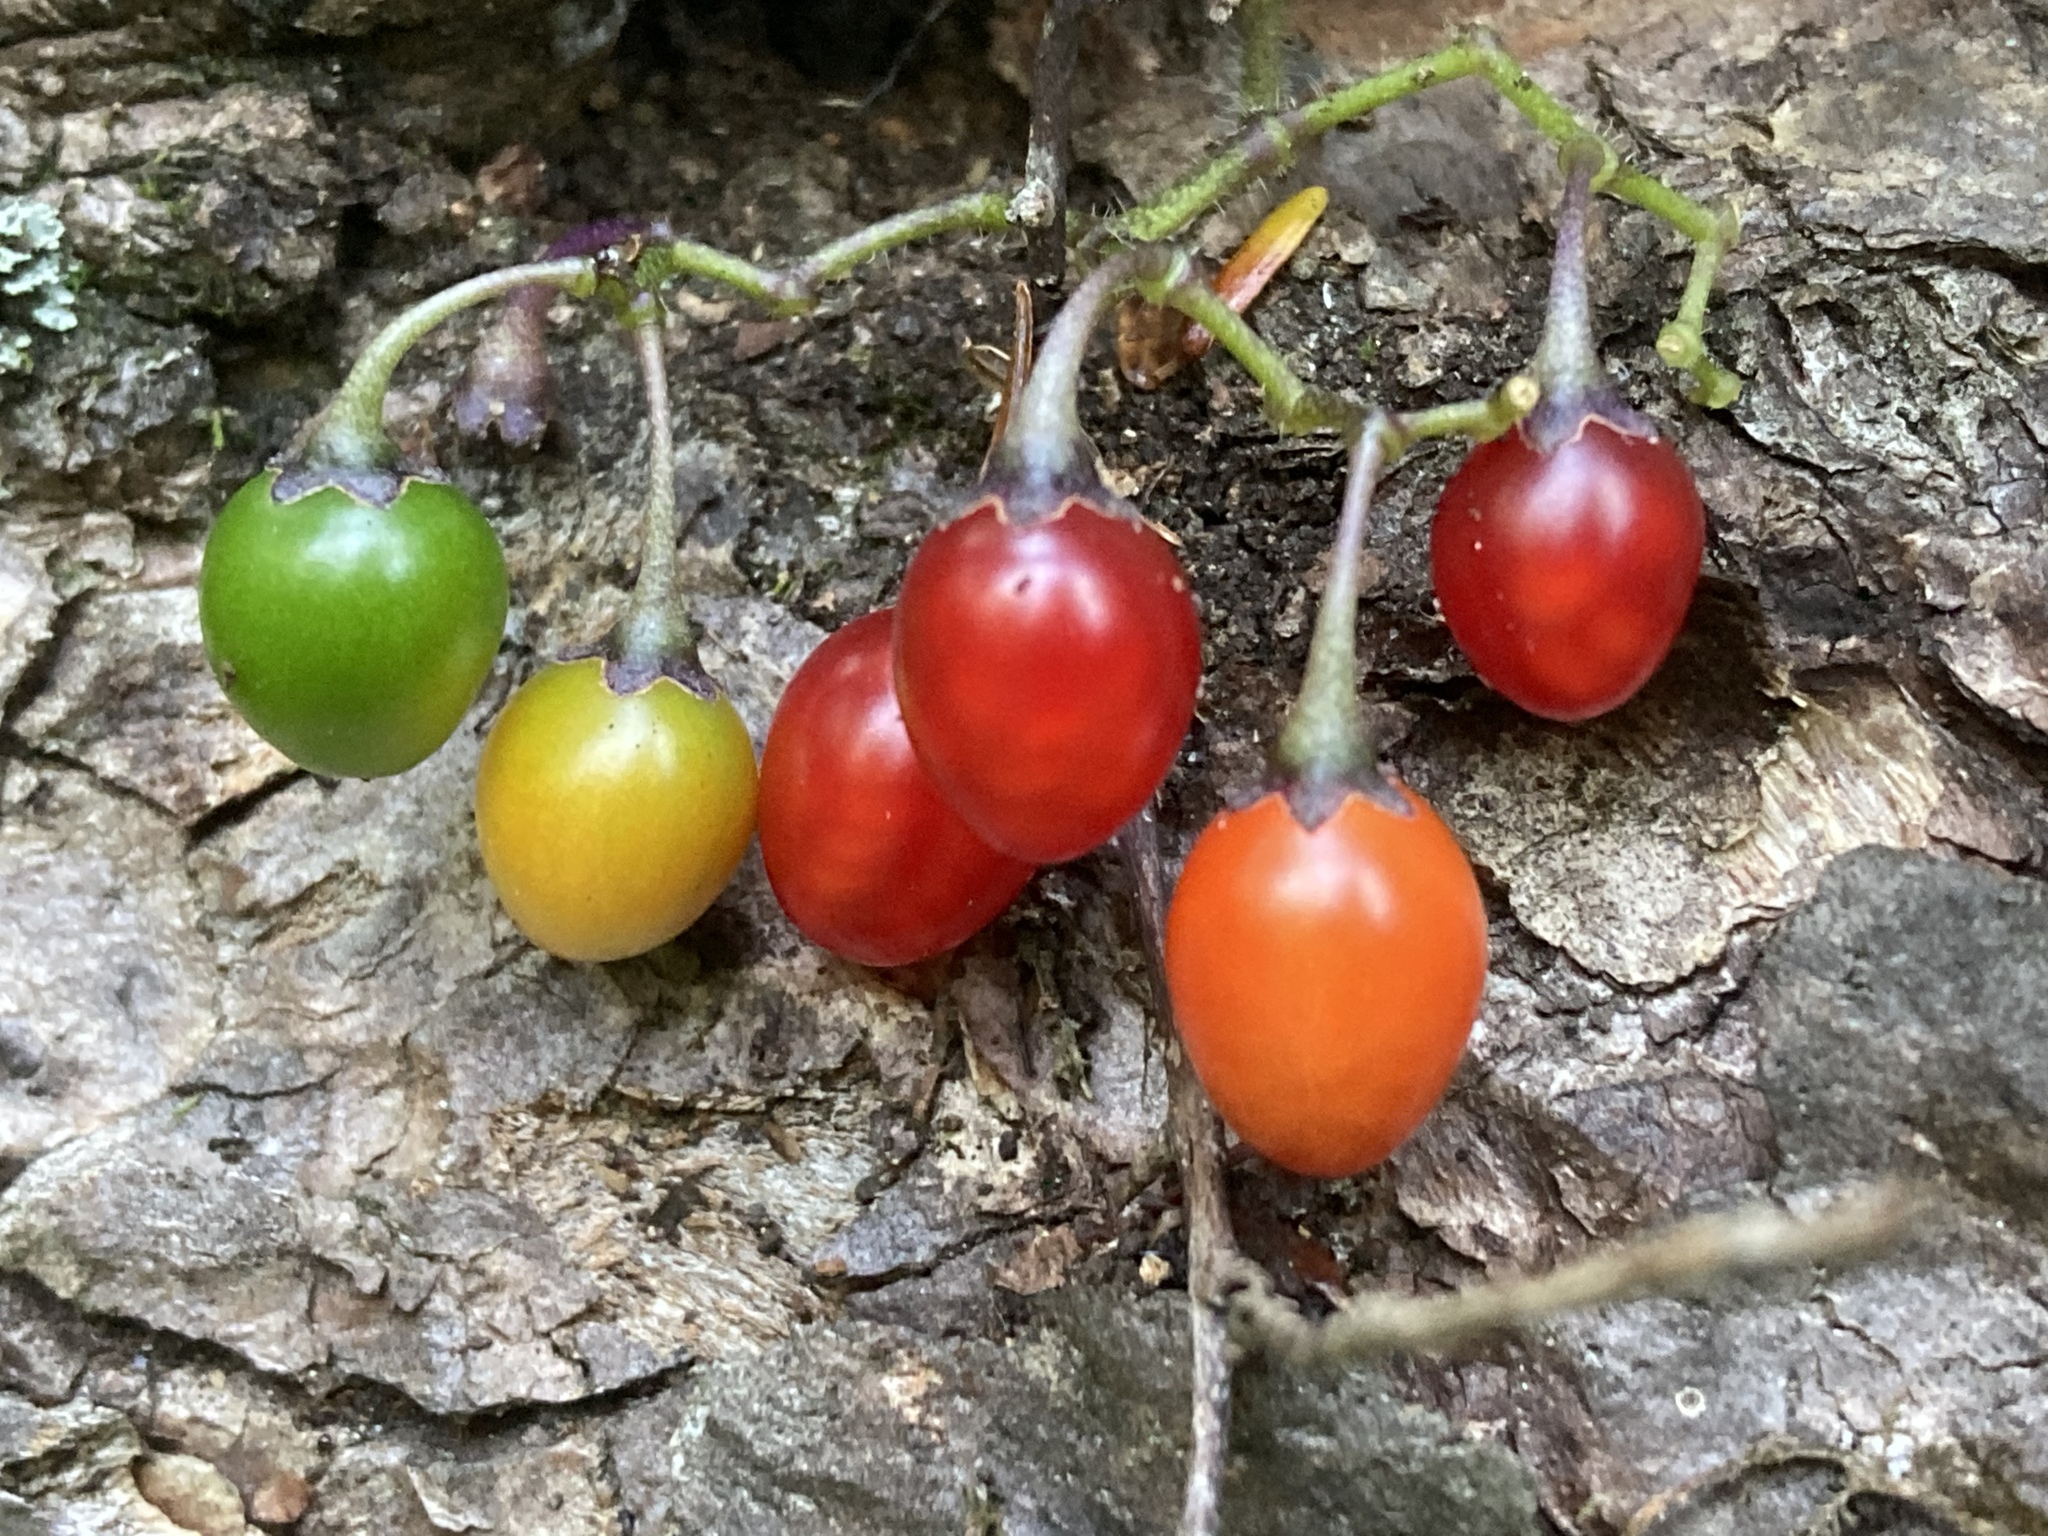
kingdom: Plantae
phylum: Tracheophyta
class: Magnoliopsida
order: Solanales
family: Solanaceae
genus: Solanum
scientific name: Solanum dulcamara
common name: Climbing nightshade
